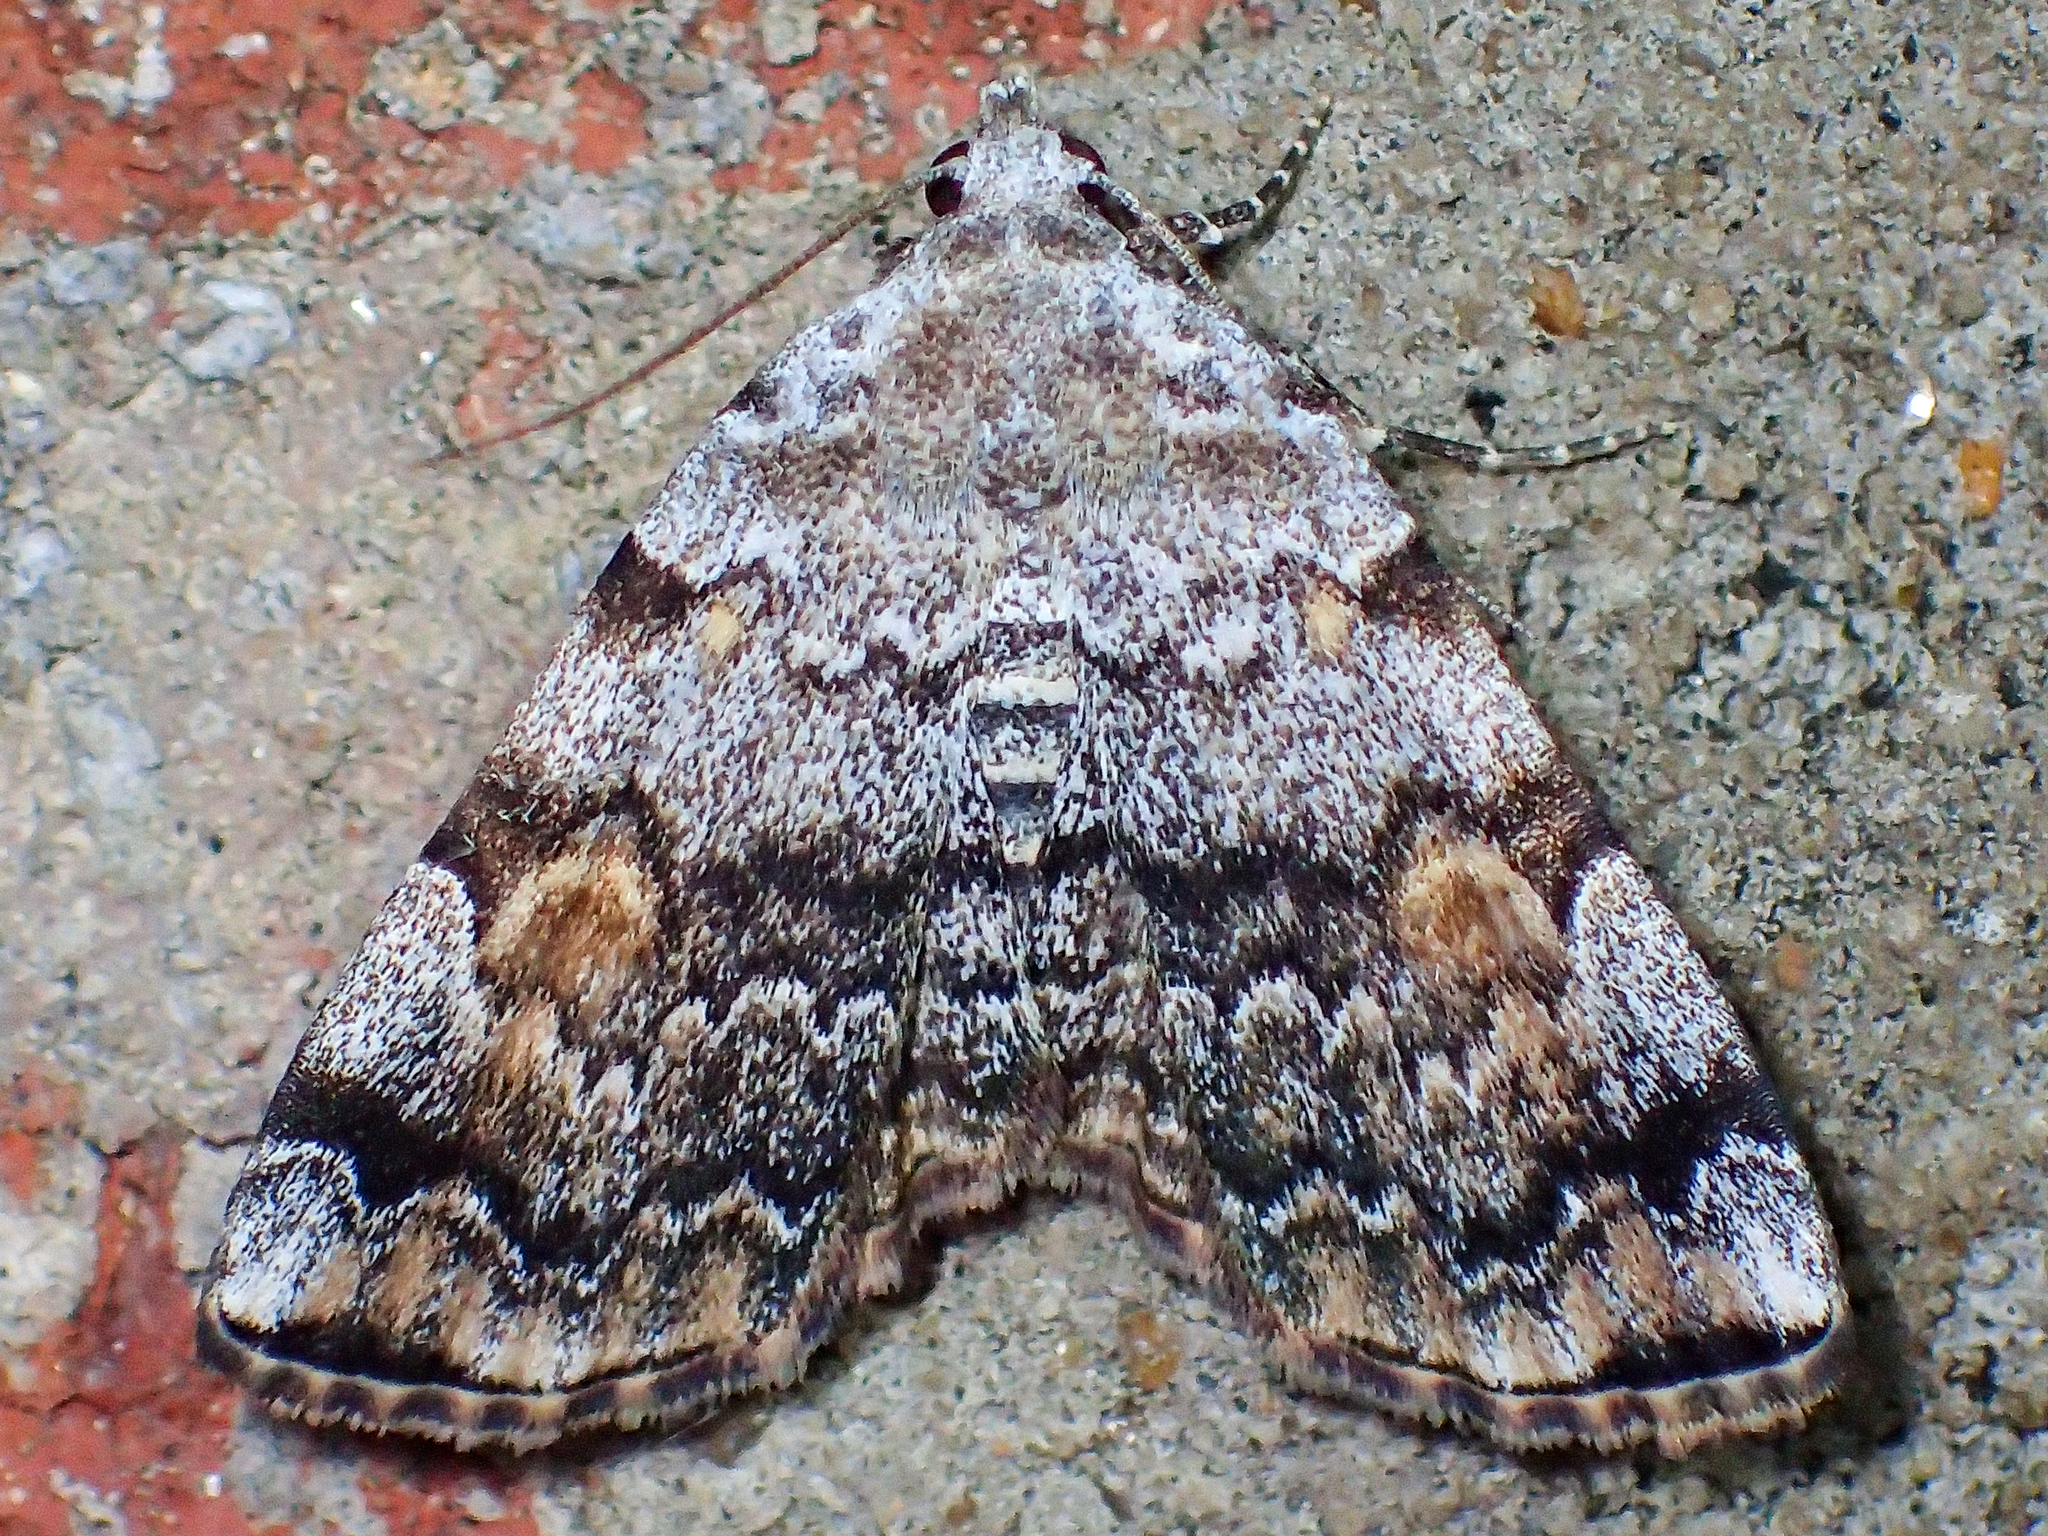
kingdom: Animalia
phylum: Arthropoda
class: Insecta
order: Lepidoptera
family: Erebidae
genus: Idia
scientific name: Idia americalis
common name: American idia moth
